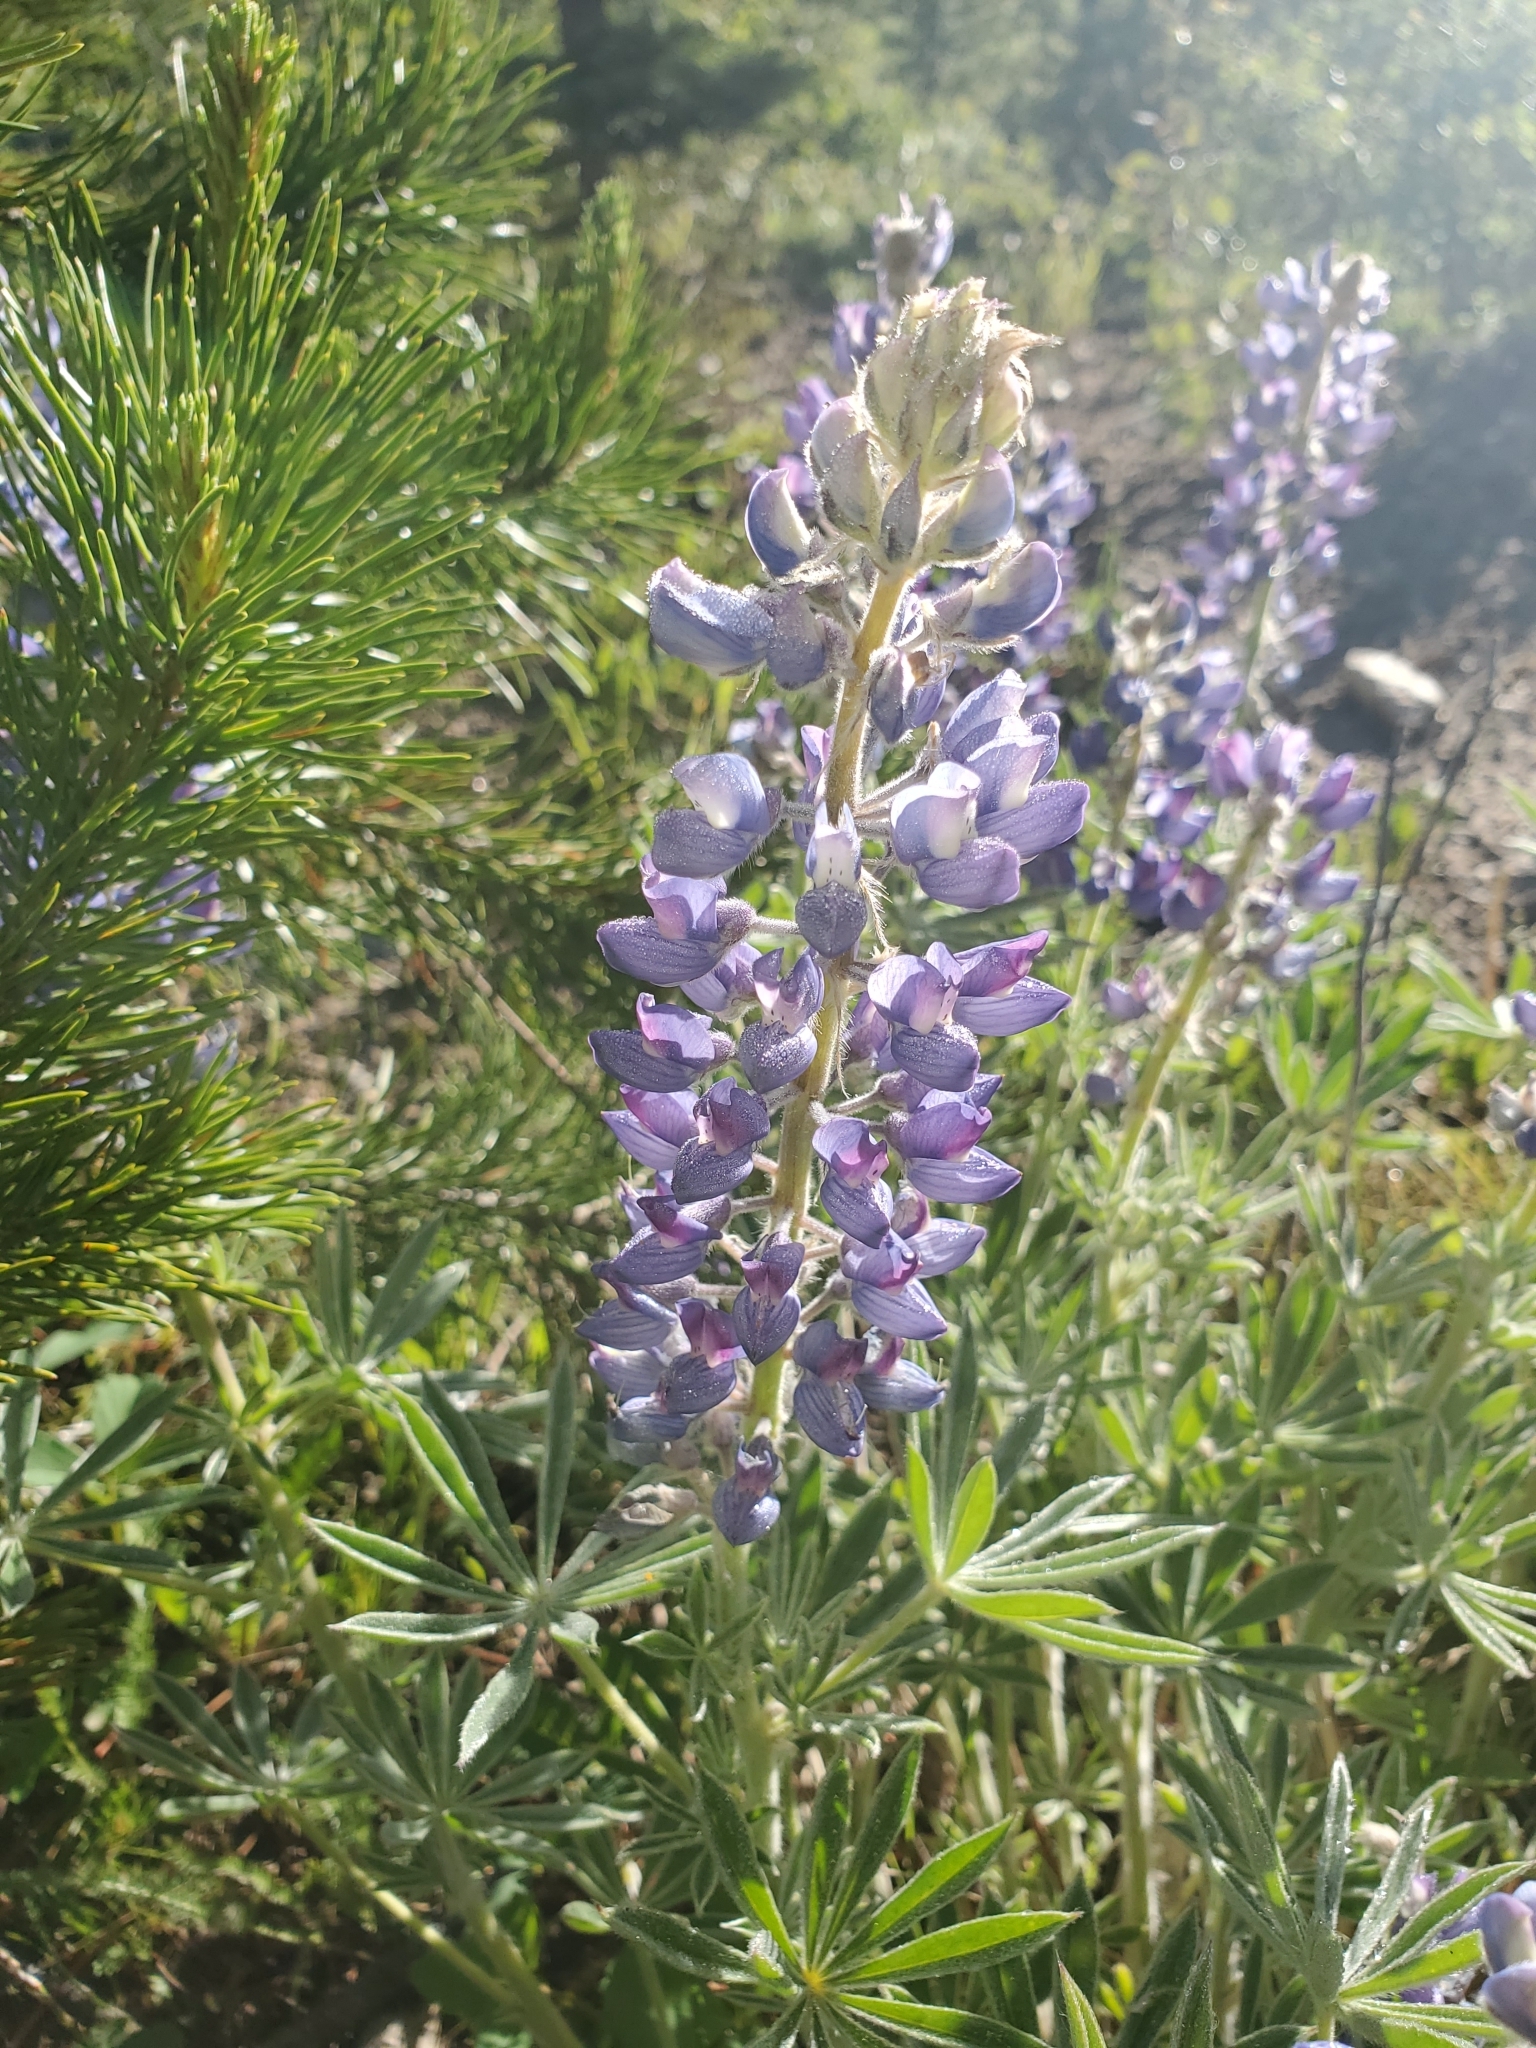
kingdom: Plantae
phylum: Tracheophyta
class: Magnoliopsida
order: Fabales
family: Fabaceae
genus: Lupinus
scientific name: Lupinus argenteus
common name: Silvery lupine
